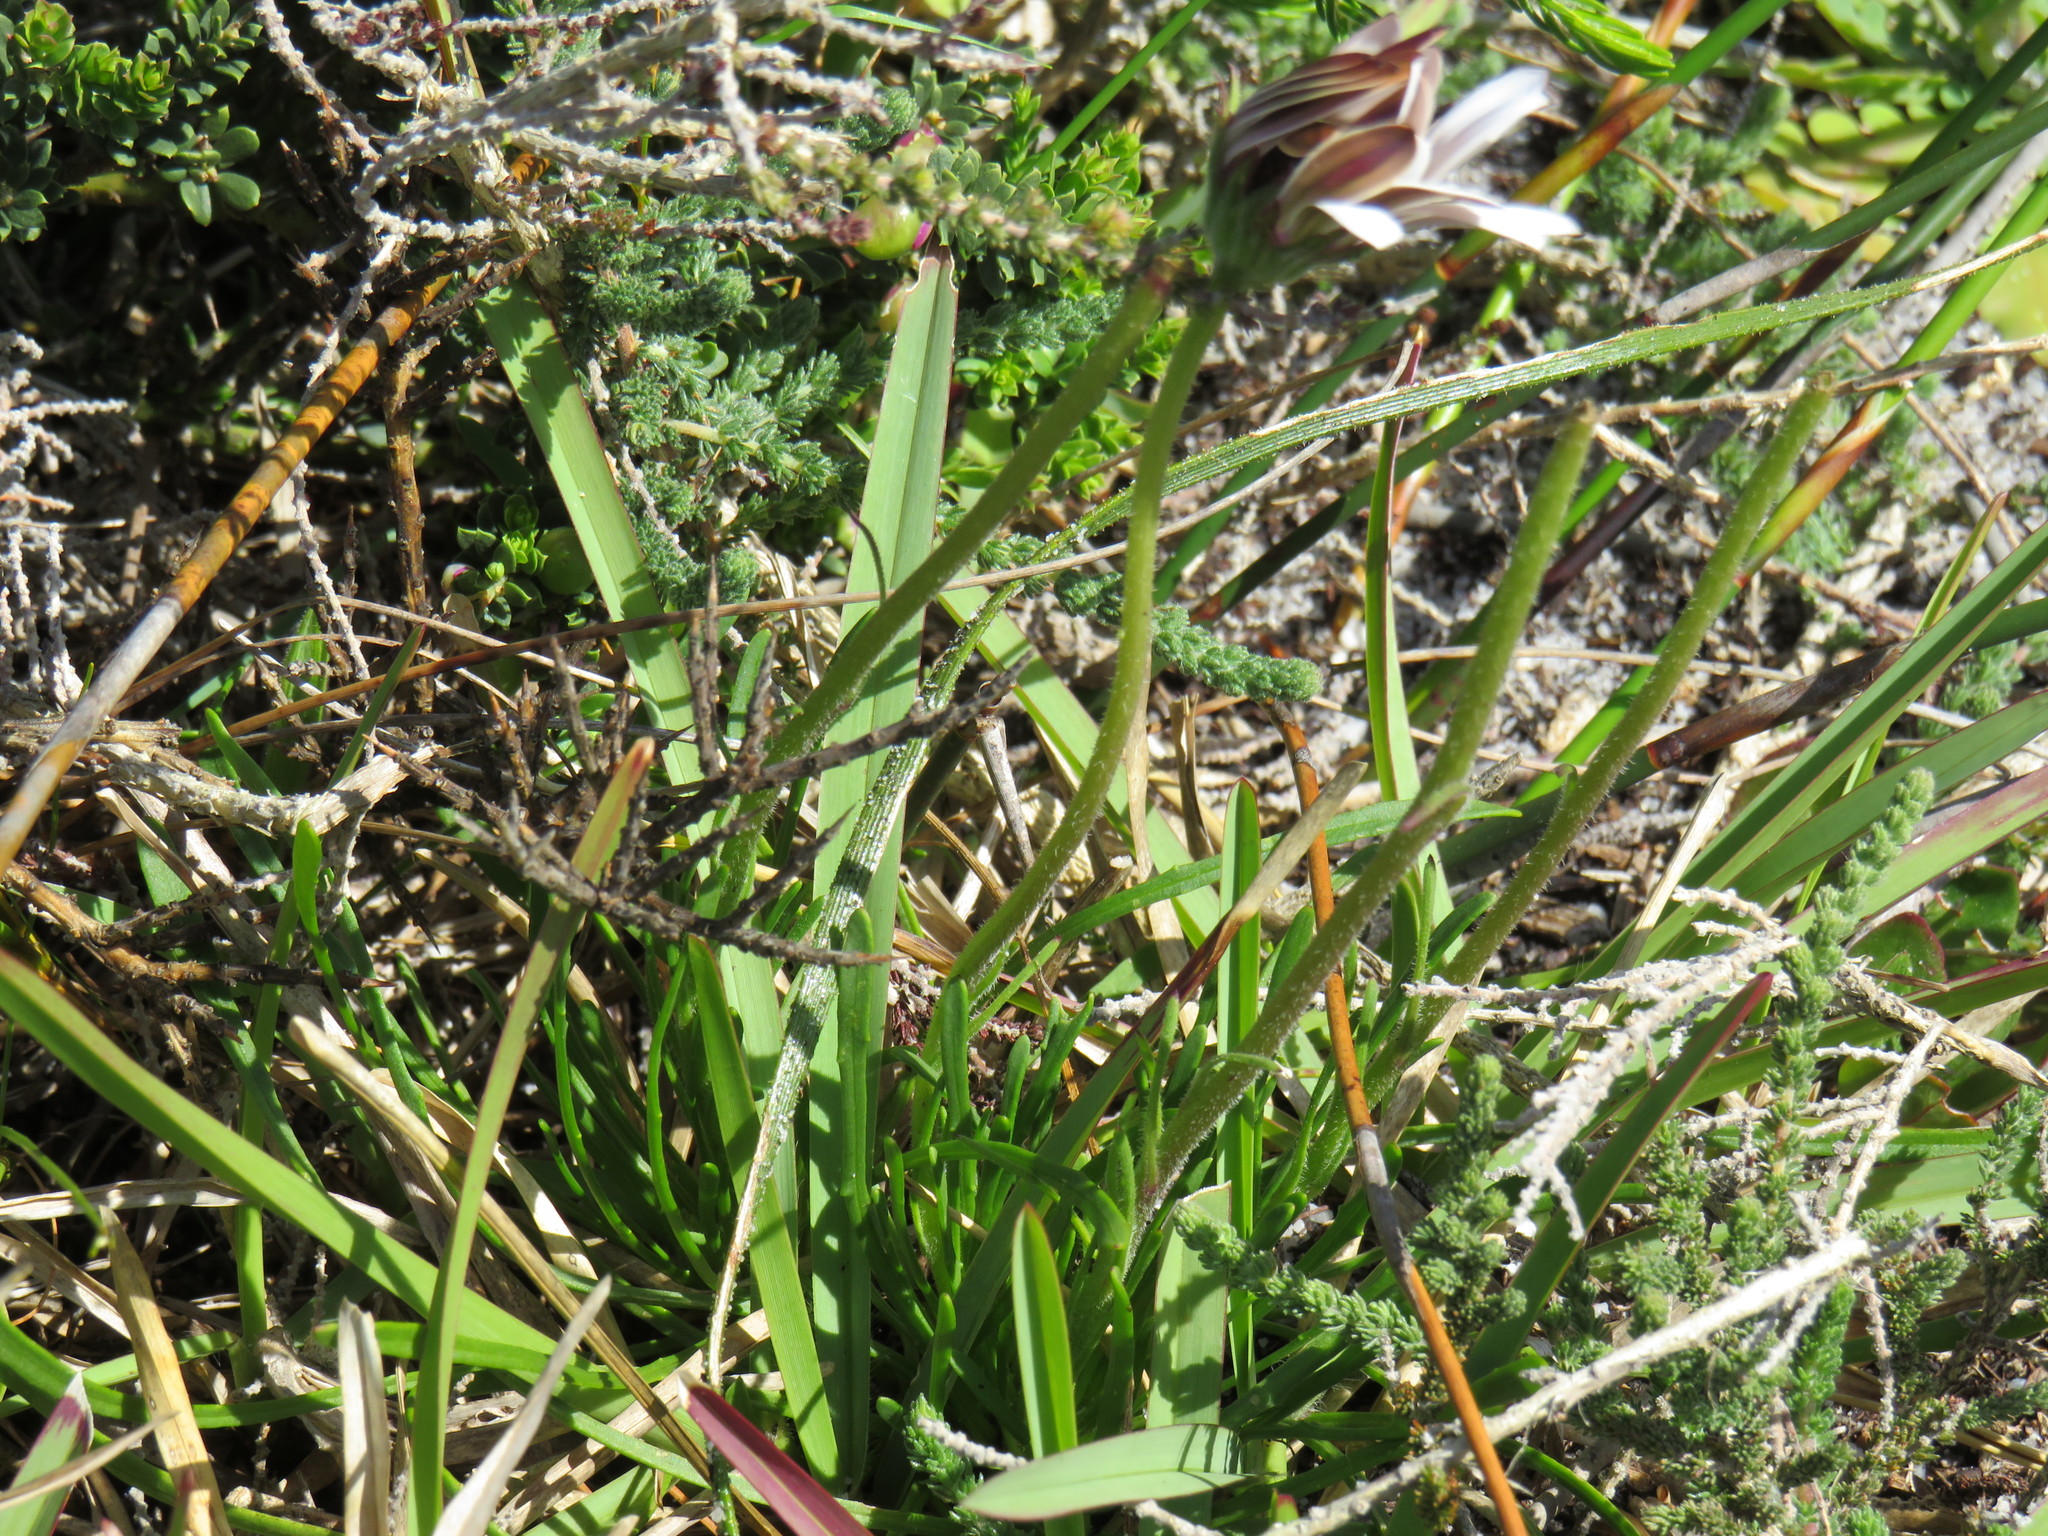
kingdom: Plantae
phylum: Tracheophyta
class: Magnoliopsida
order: Asterales
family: Asteraceae
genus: Dimorphotheca
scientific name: Dimorphotheca nudicaulis
